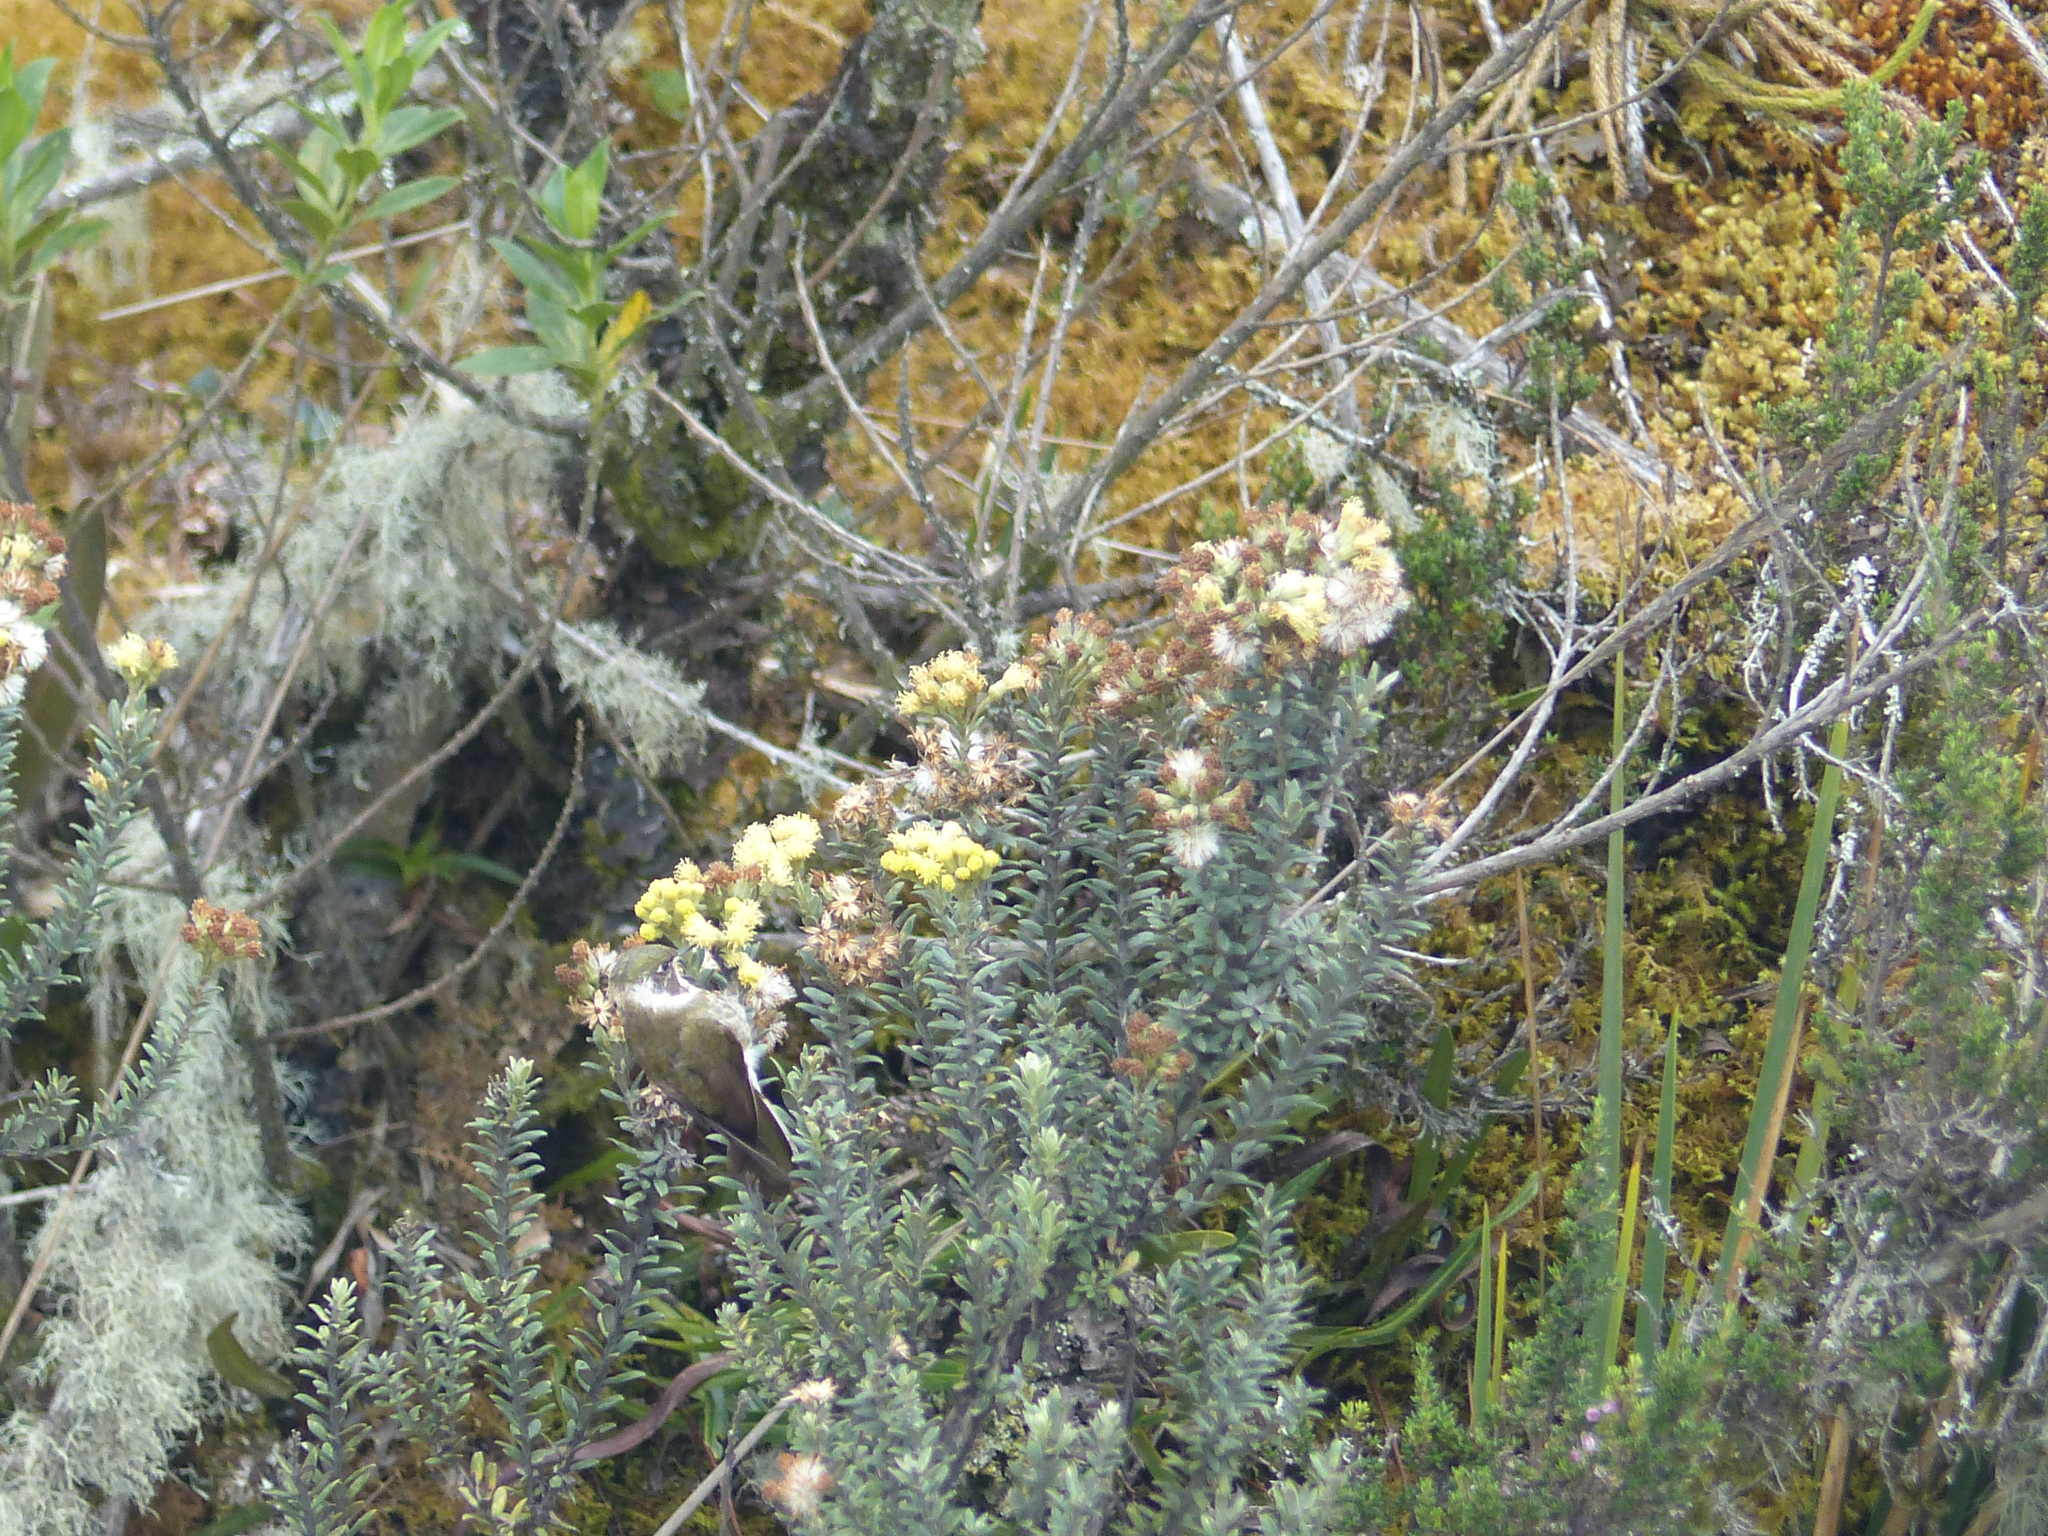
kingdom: Animalia
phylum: Chordata
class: Aves
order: Apodiformes
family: Trochilidae
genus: Oxypogon
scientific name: Oxypogon guerinii
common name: Bearded helmetcrest
